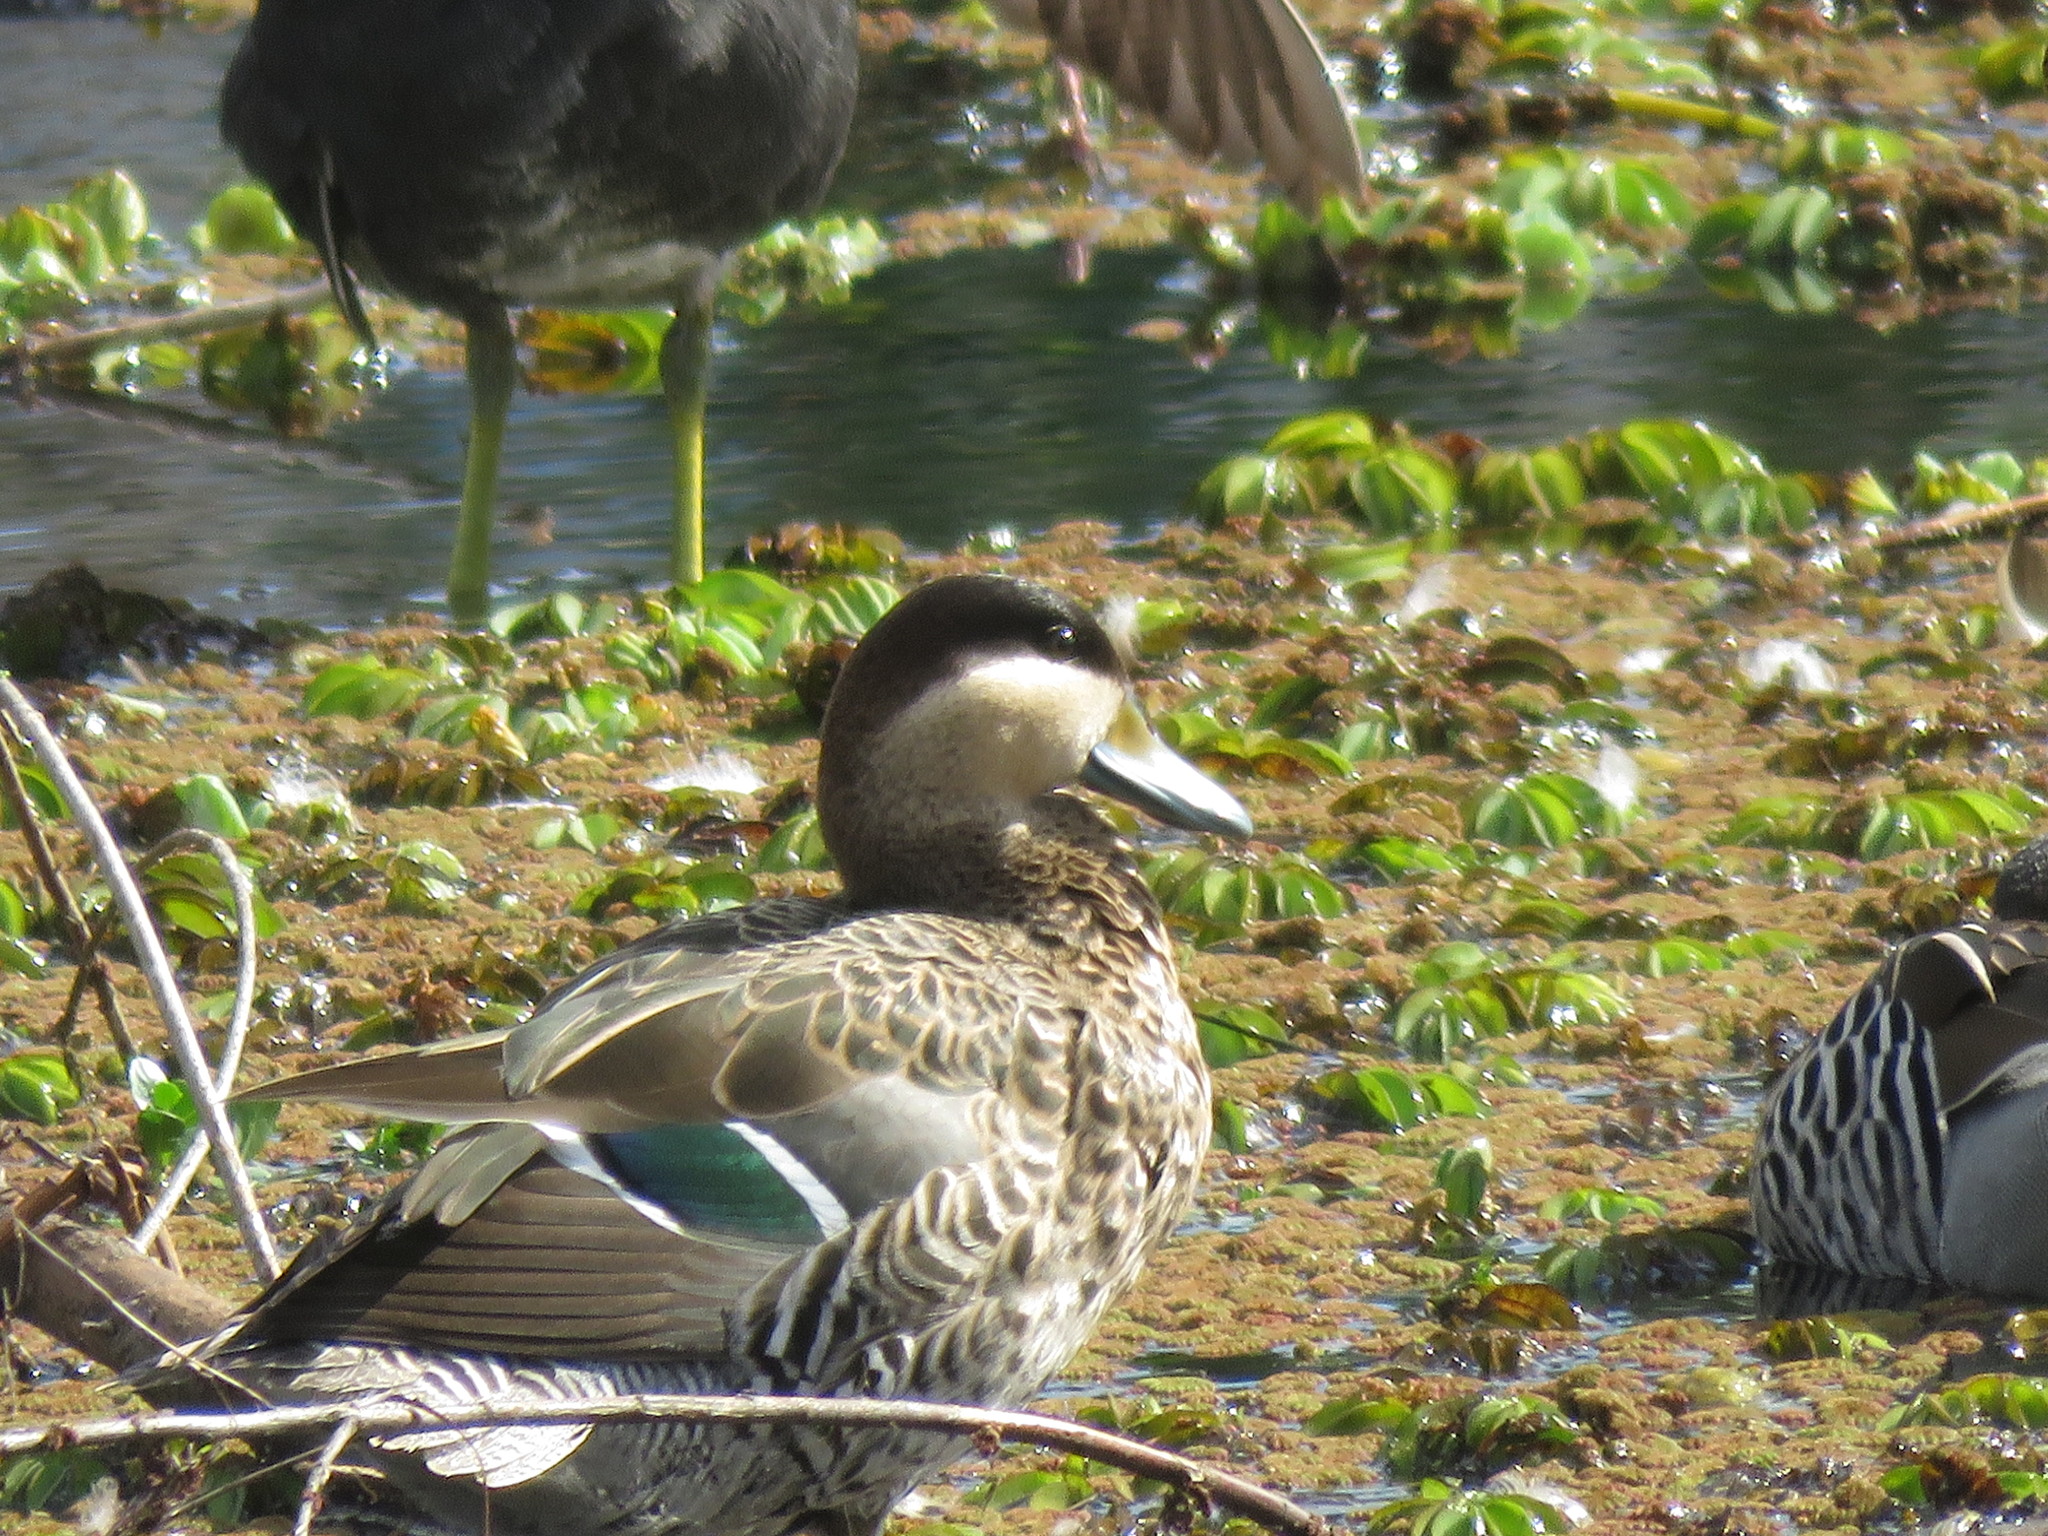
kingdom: Animalia
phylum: Chordata
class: Aves
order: Anseriformes
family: Anatidae
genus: Spatula
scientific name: Spatula versicolor
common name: Silver teal
